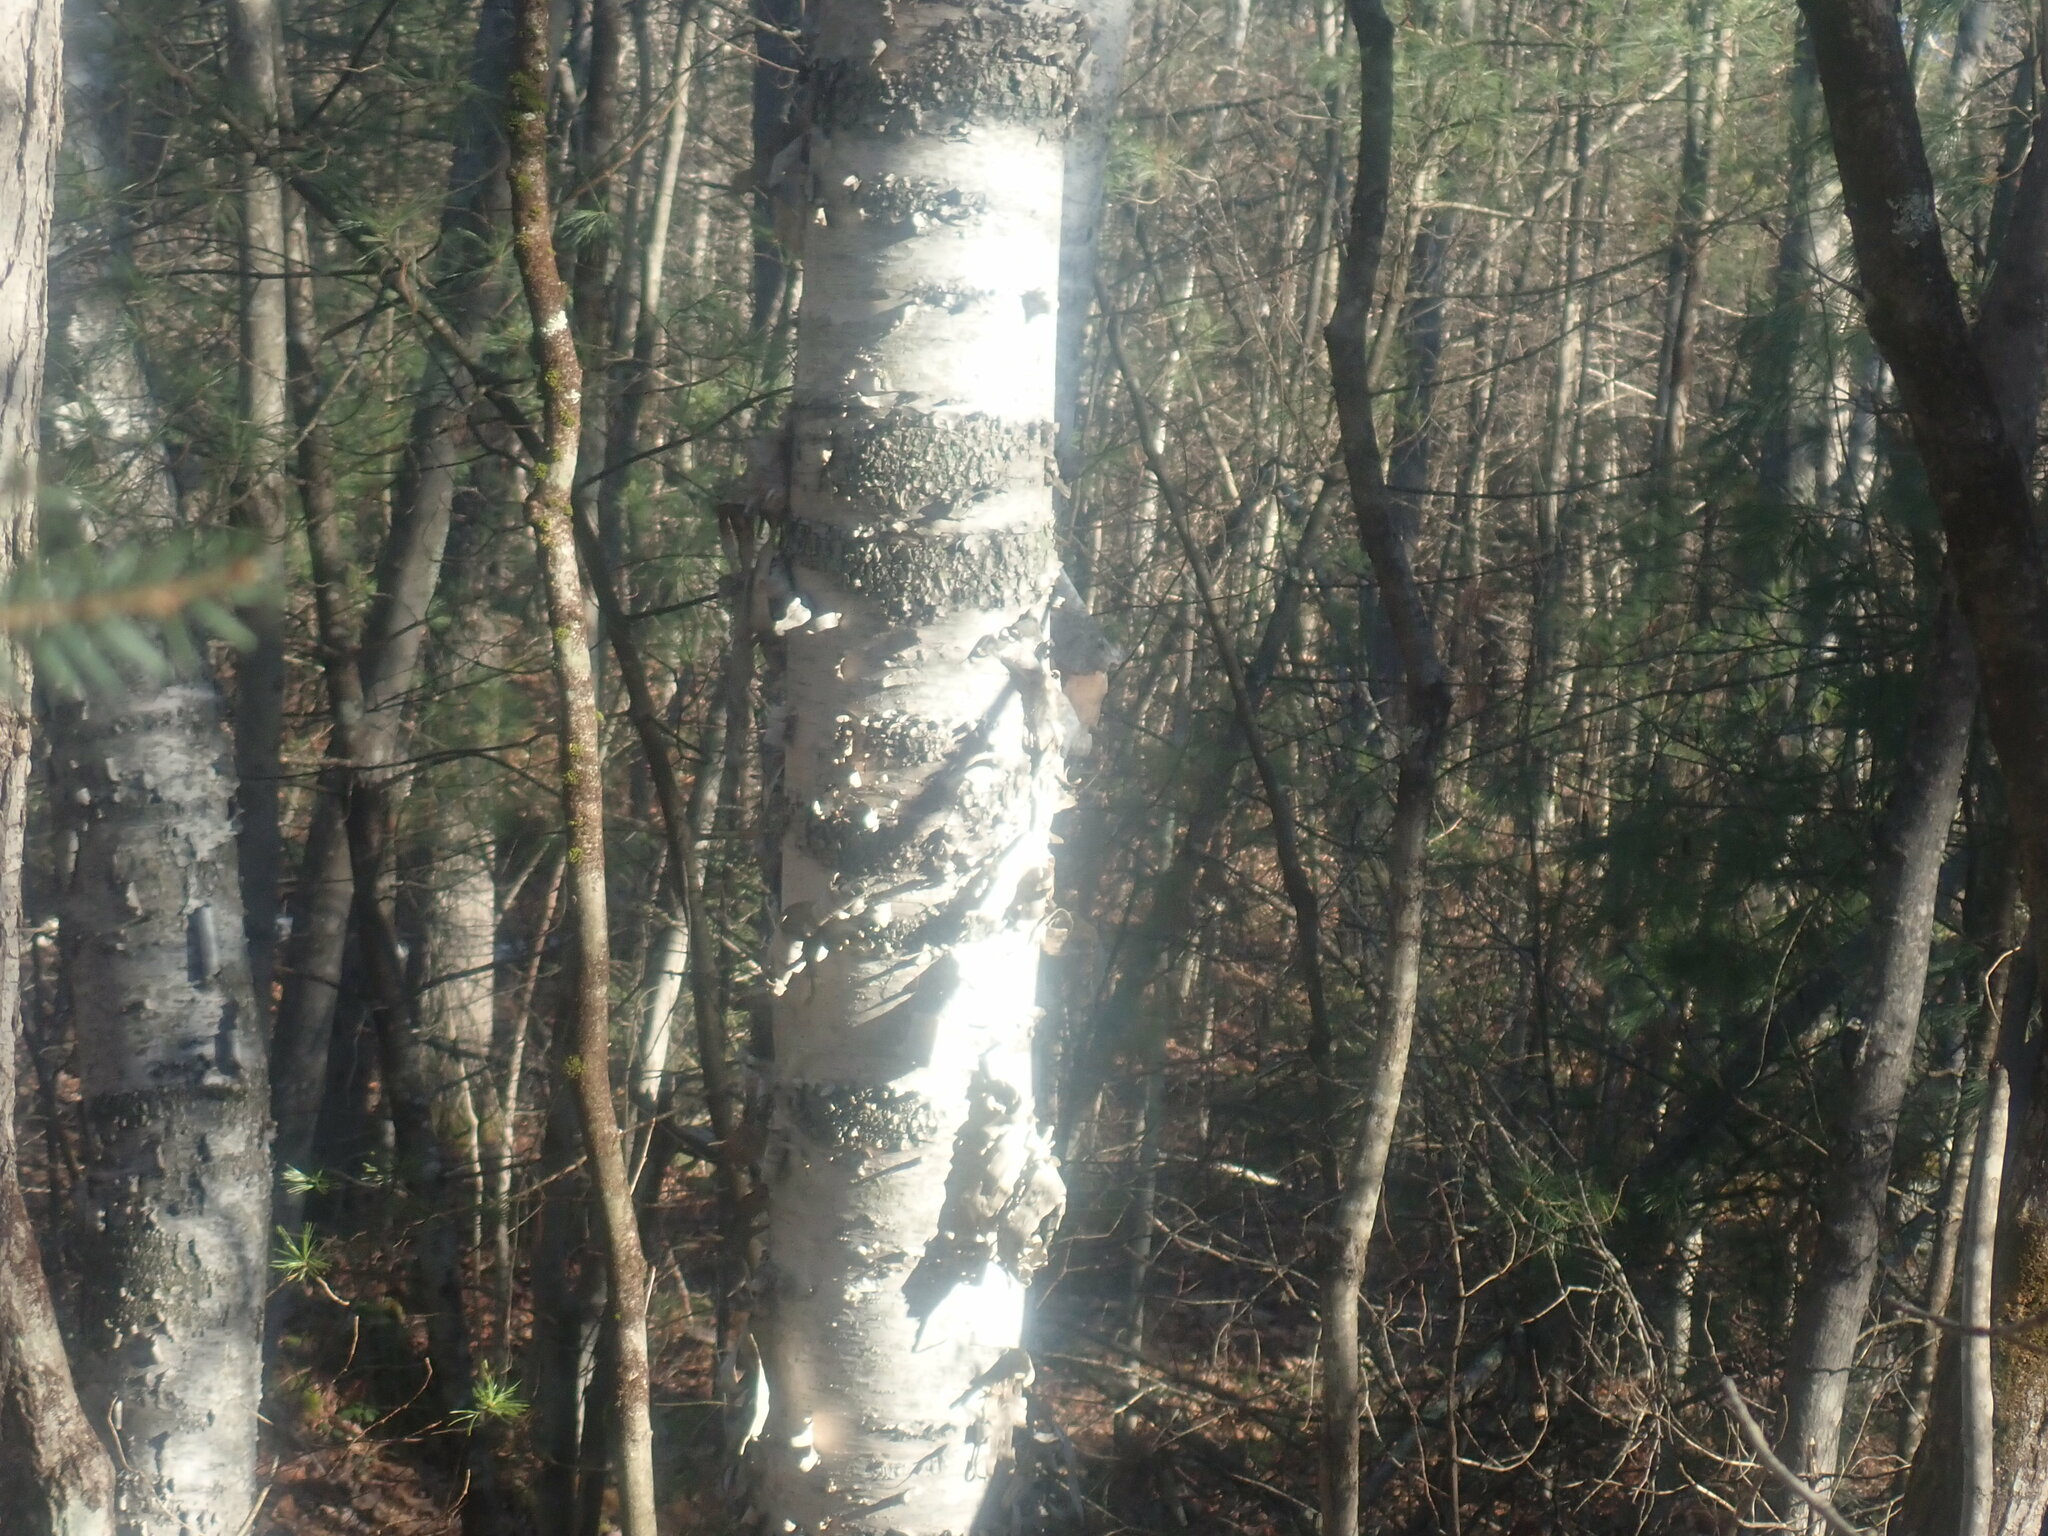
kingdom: Plantae
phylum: Tracheophyta
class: Magnoliopsida
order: Fagales
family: Betulaceae
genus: Betula
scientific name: Betula papyrifera
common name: Paper birch
